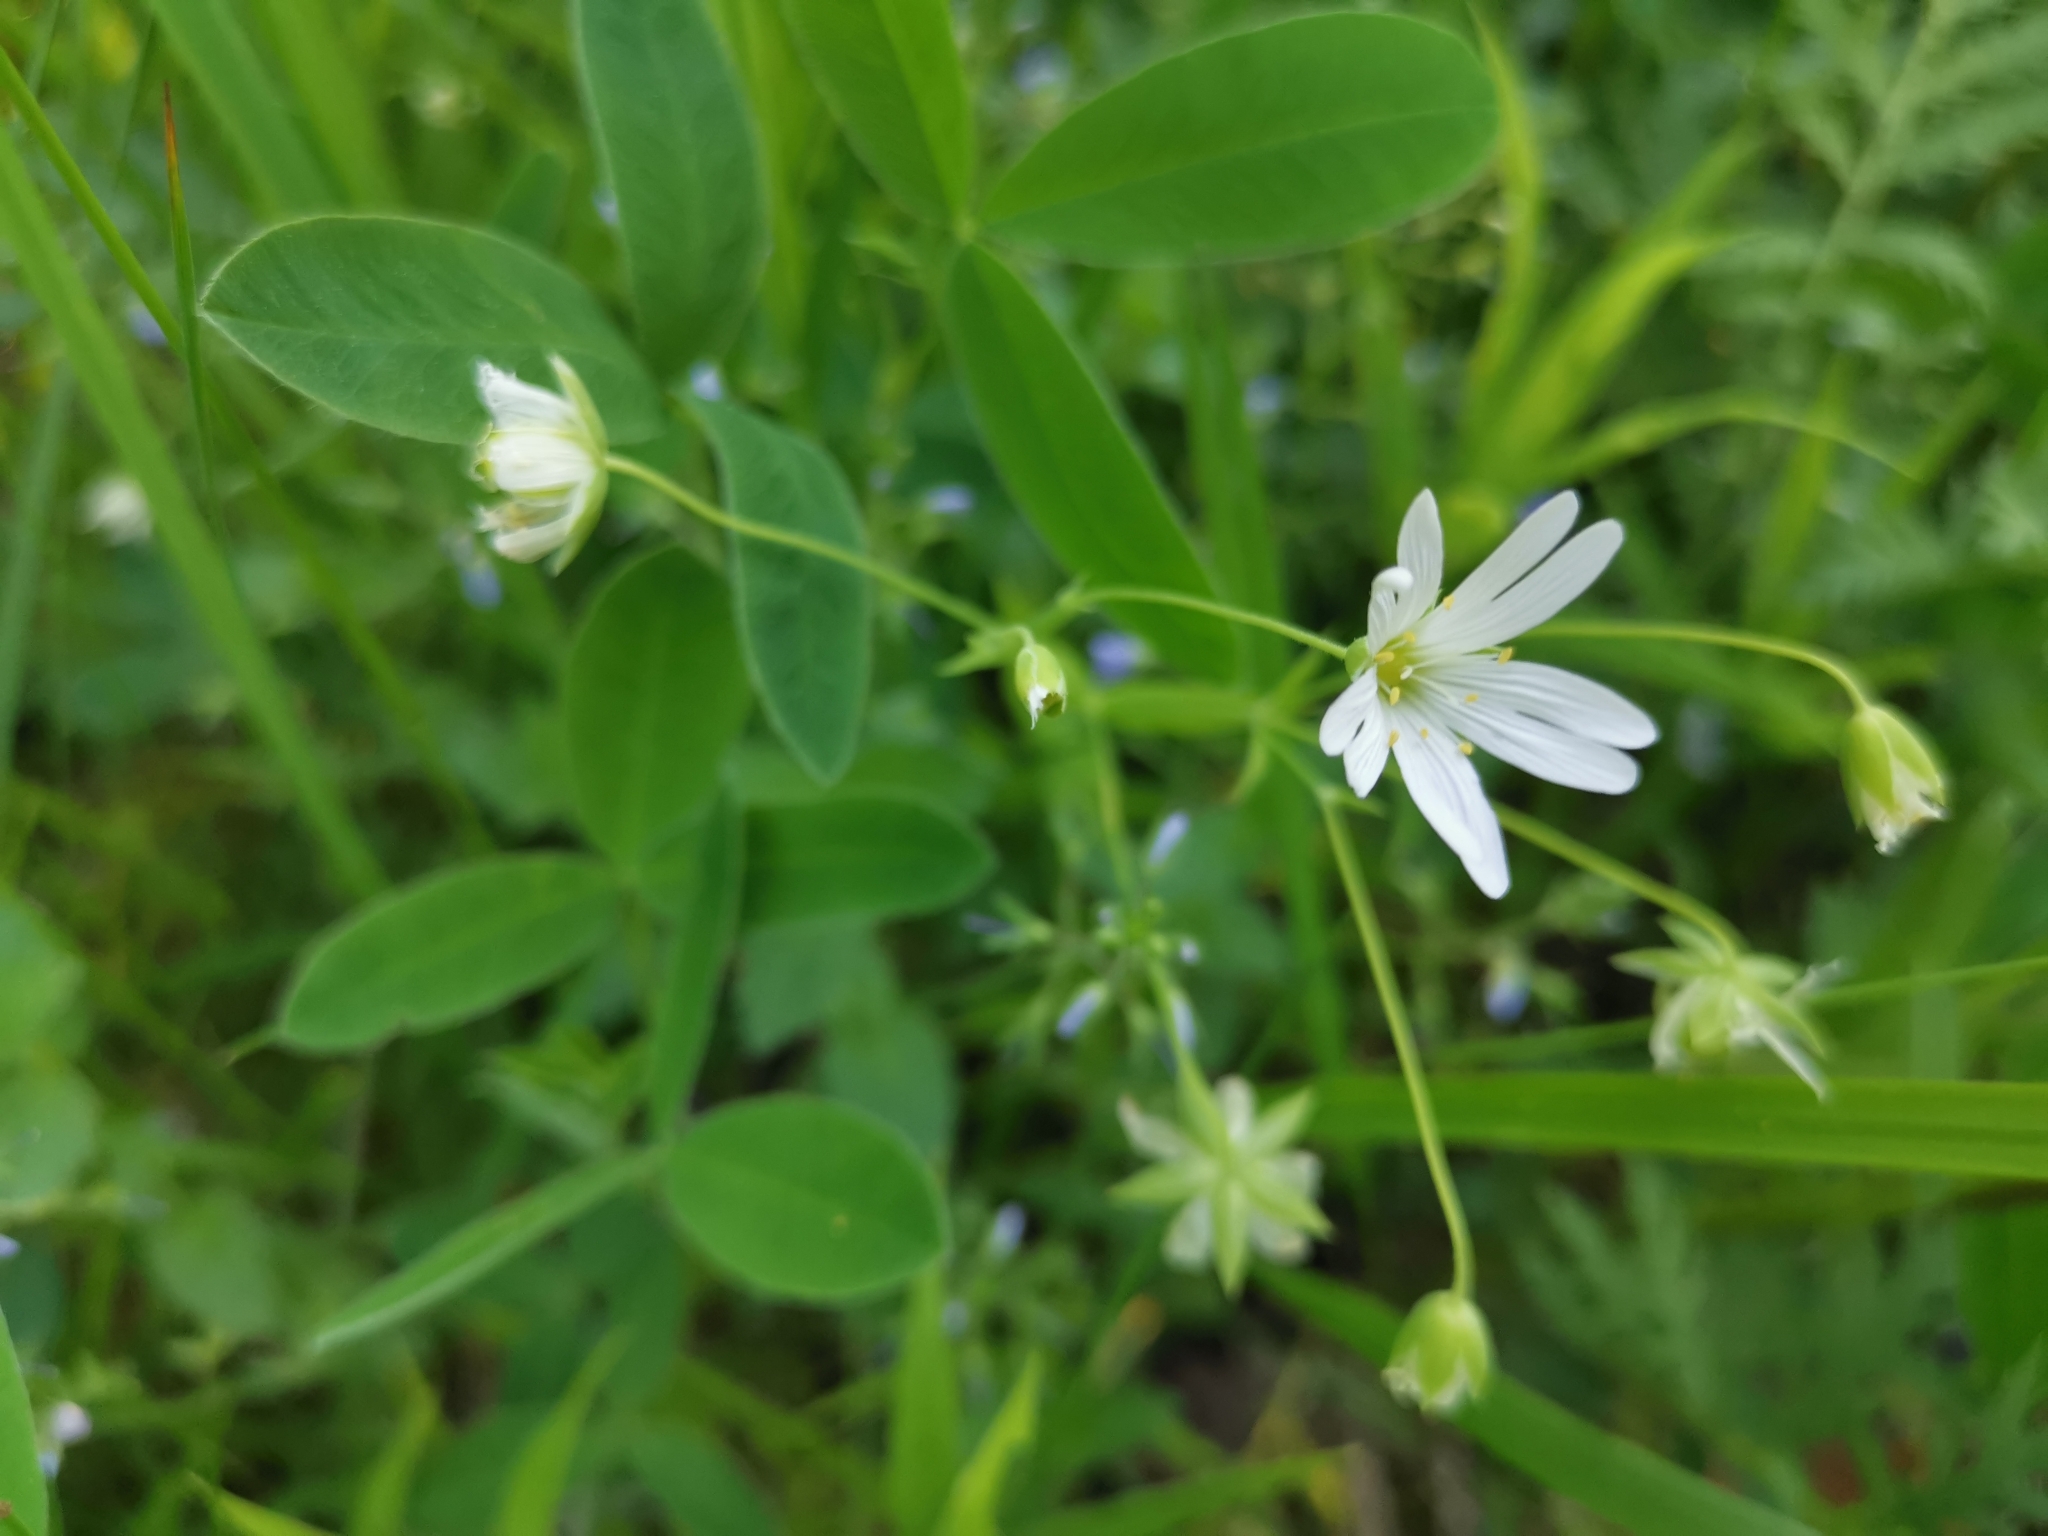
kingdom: Plantae
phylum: Tracheophyta
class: Magnoliopsida
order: Caryophyllales
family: Caryophyllaceae
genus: Rabelera
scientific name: Rabelera holostea
